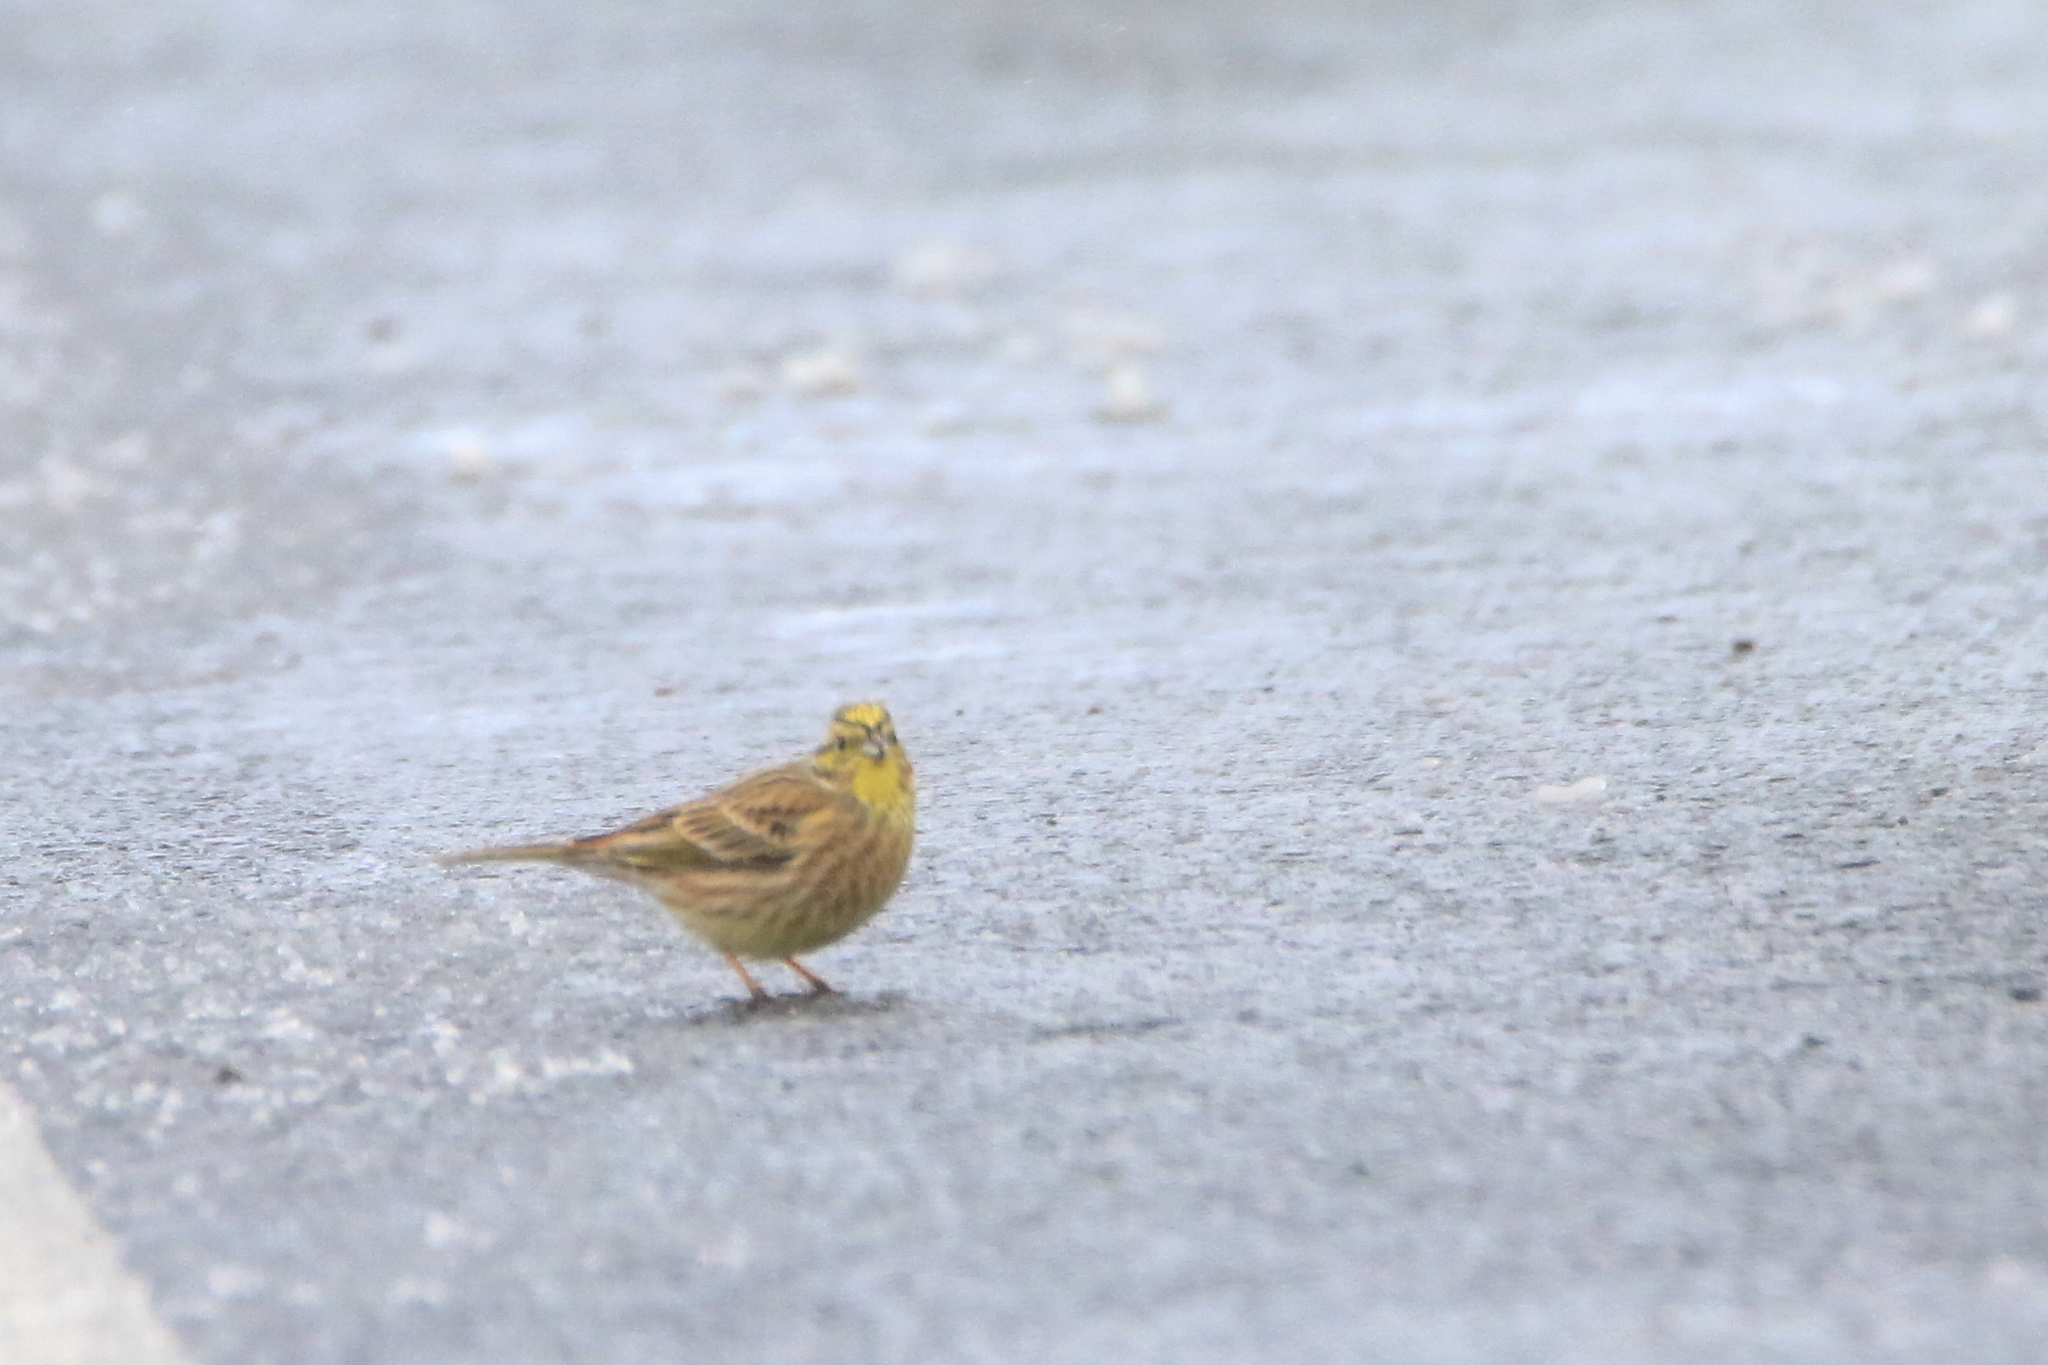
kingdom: Animalia
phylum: Chordata
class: Aves
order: Passeriformes
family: Emberizidae
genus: Emberiza
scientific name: Emberiza citrinella
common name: Yellowhammer
